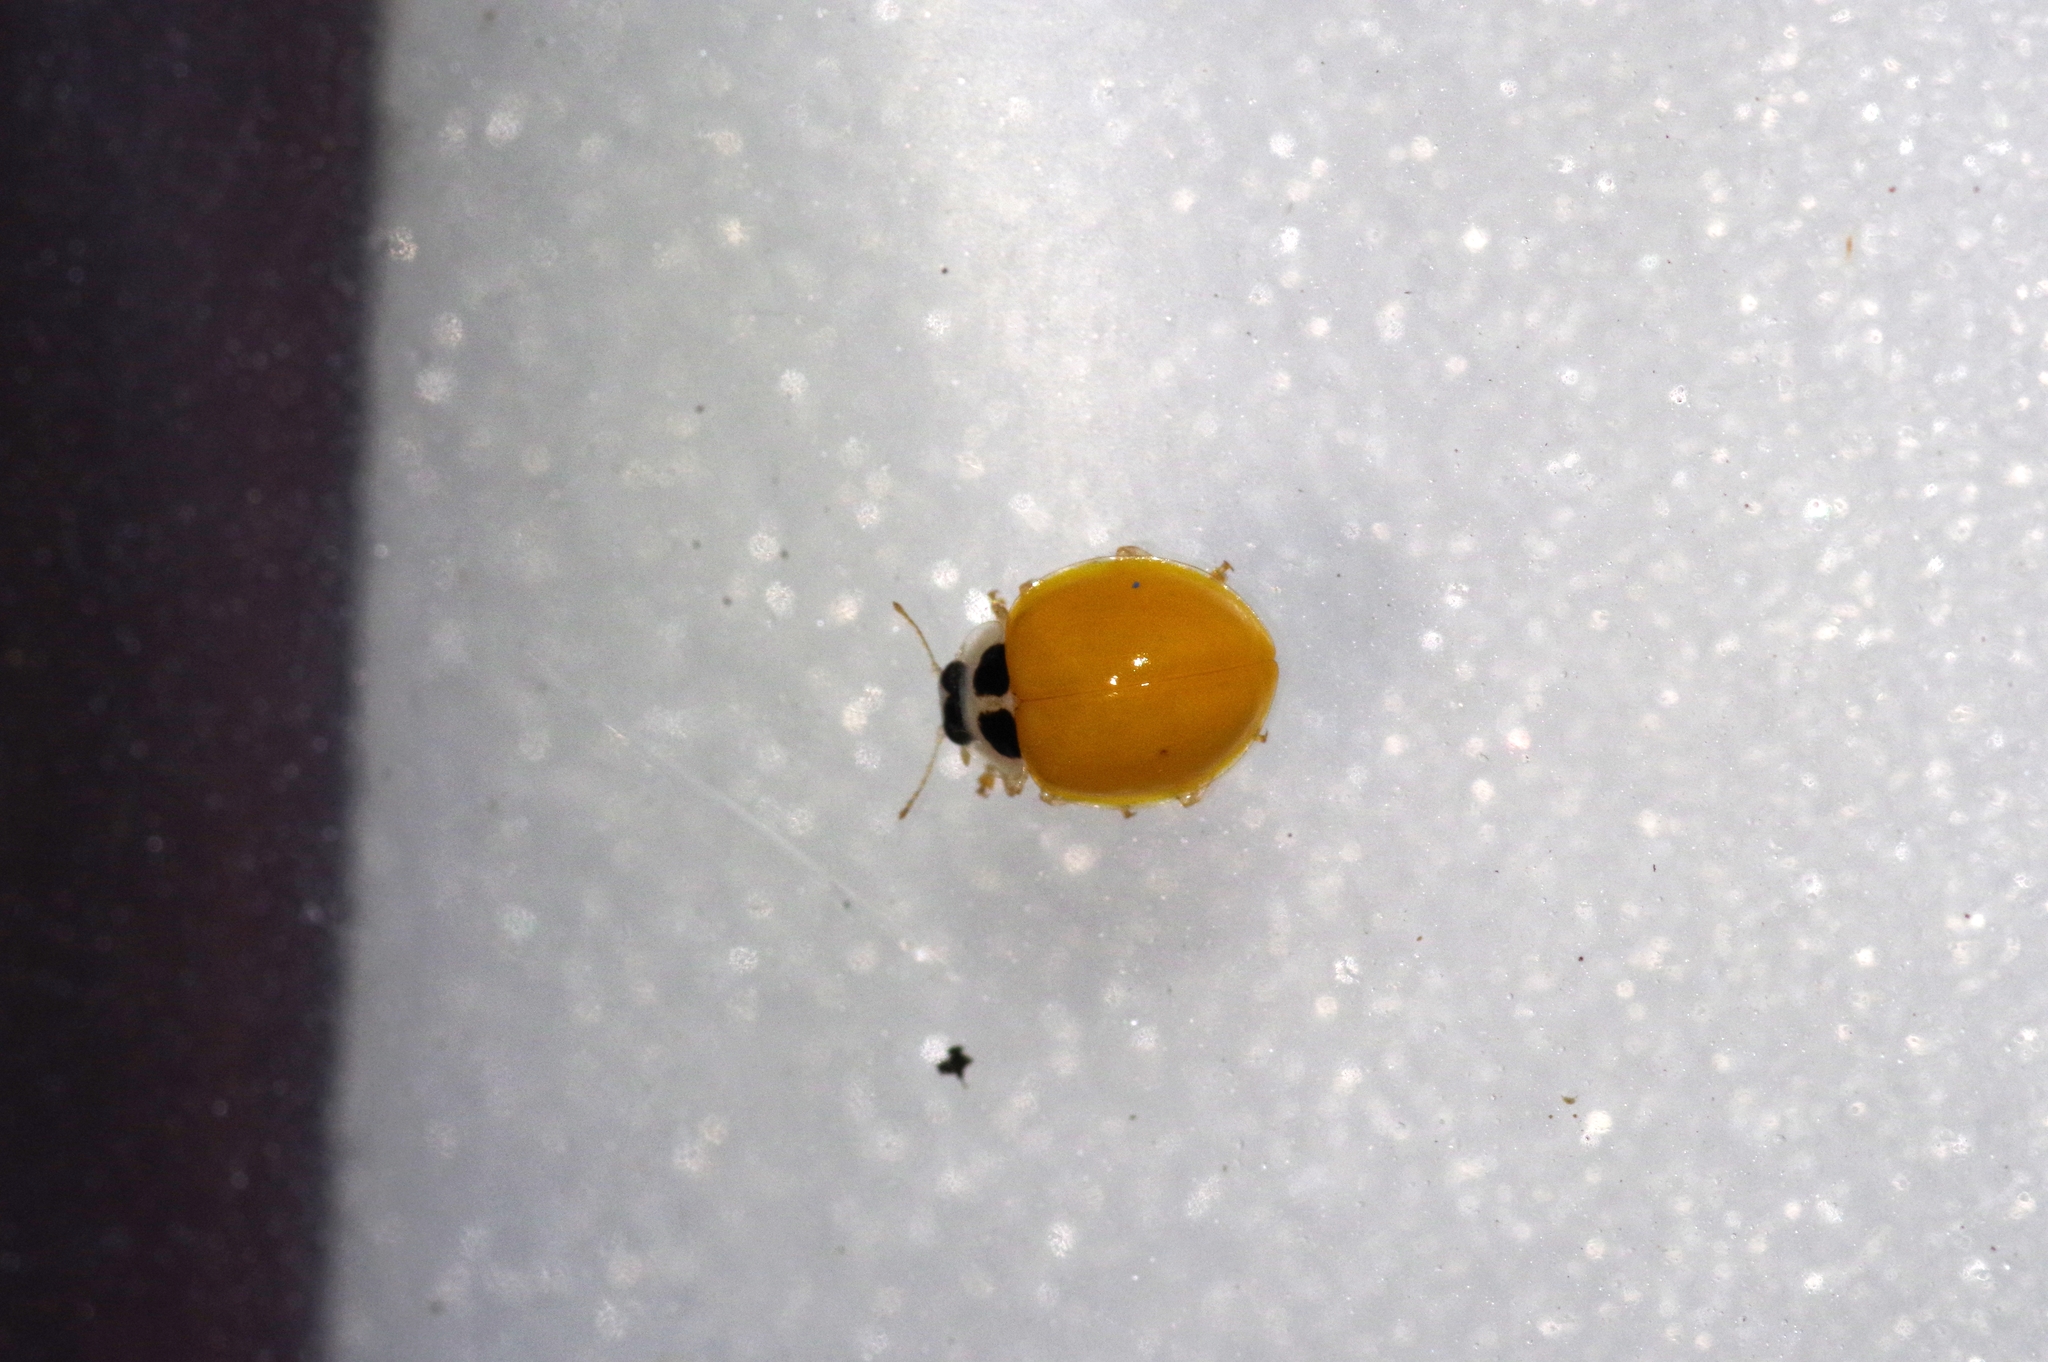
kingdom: Animalia
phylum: Arthropoda
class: Insecta
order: Coleoptera
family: Coccinellidae
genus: Illeis
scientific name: Illeis koebelei
